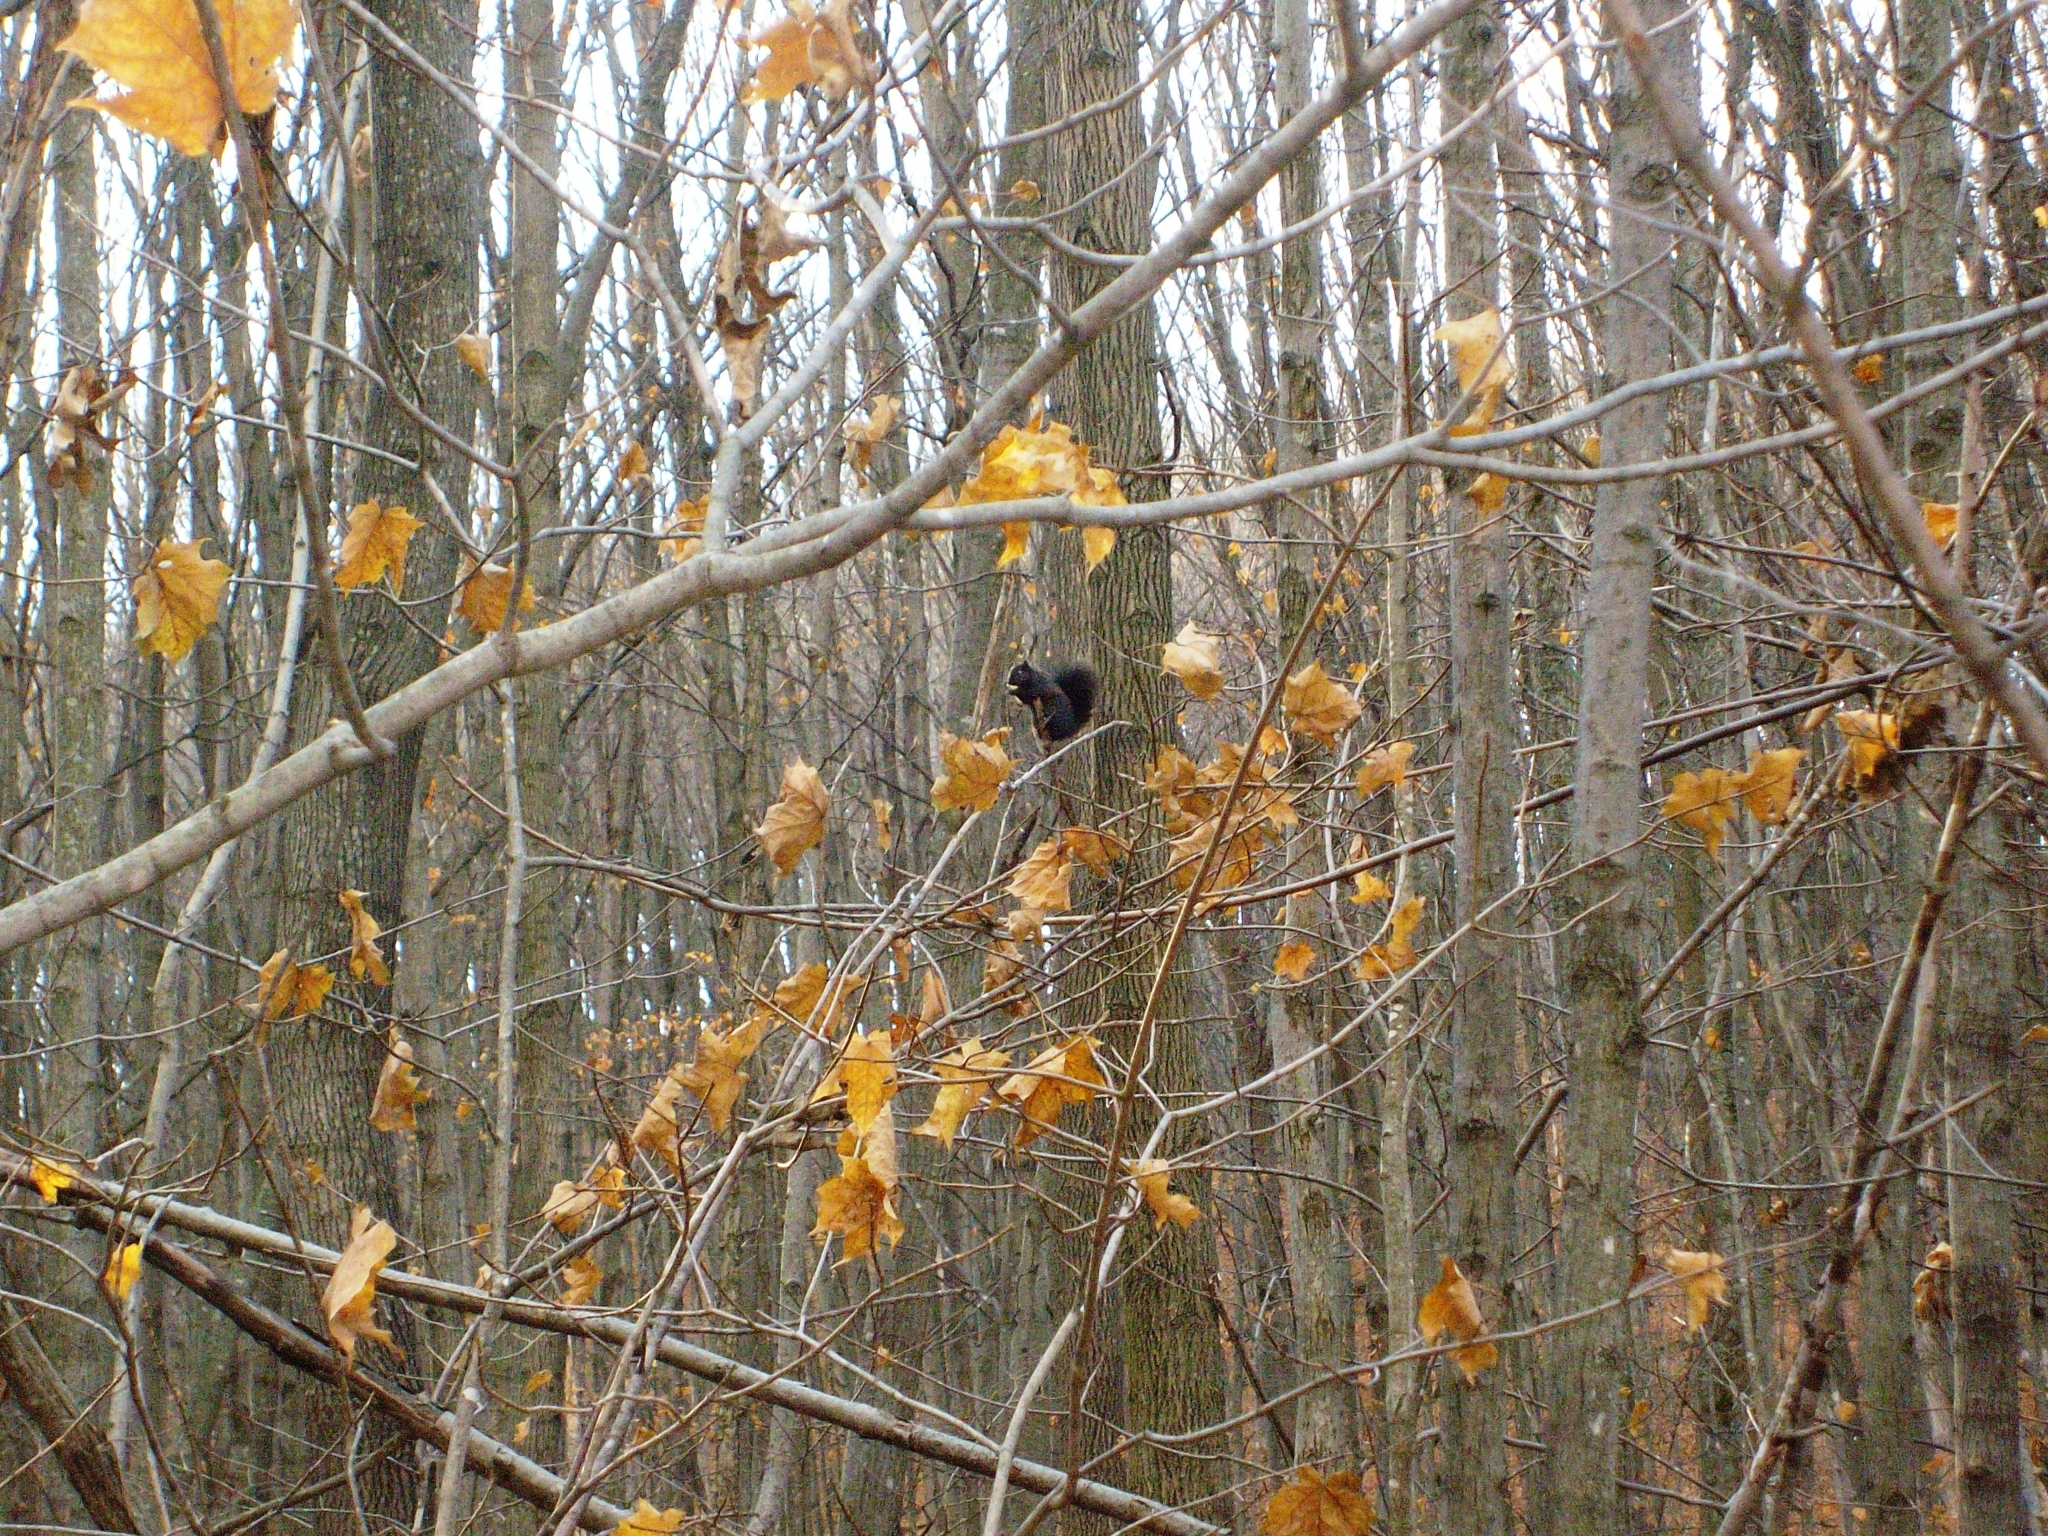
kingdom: Animalia
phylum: Chordata
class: Mammalia
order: Rodentia
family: Sciuridae
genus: Sciurus
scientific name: Sciurus carolinensis
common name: Eastern gray squirrel
